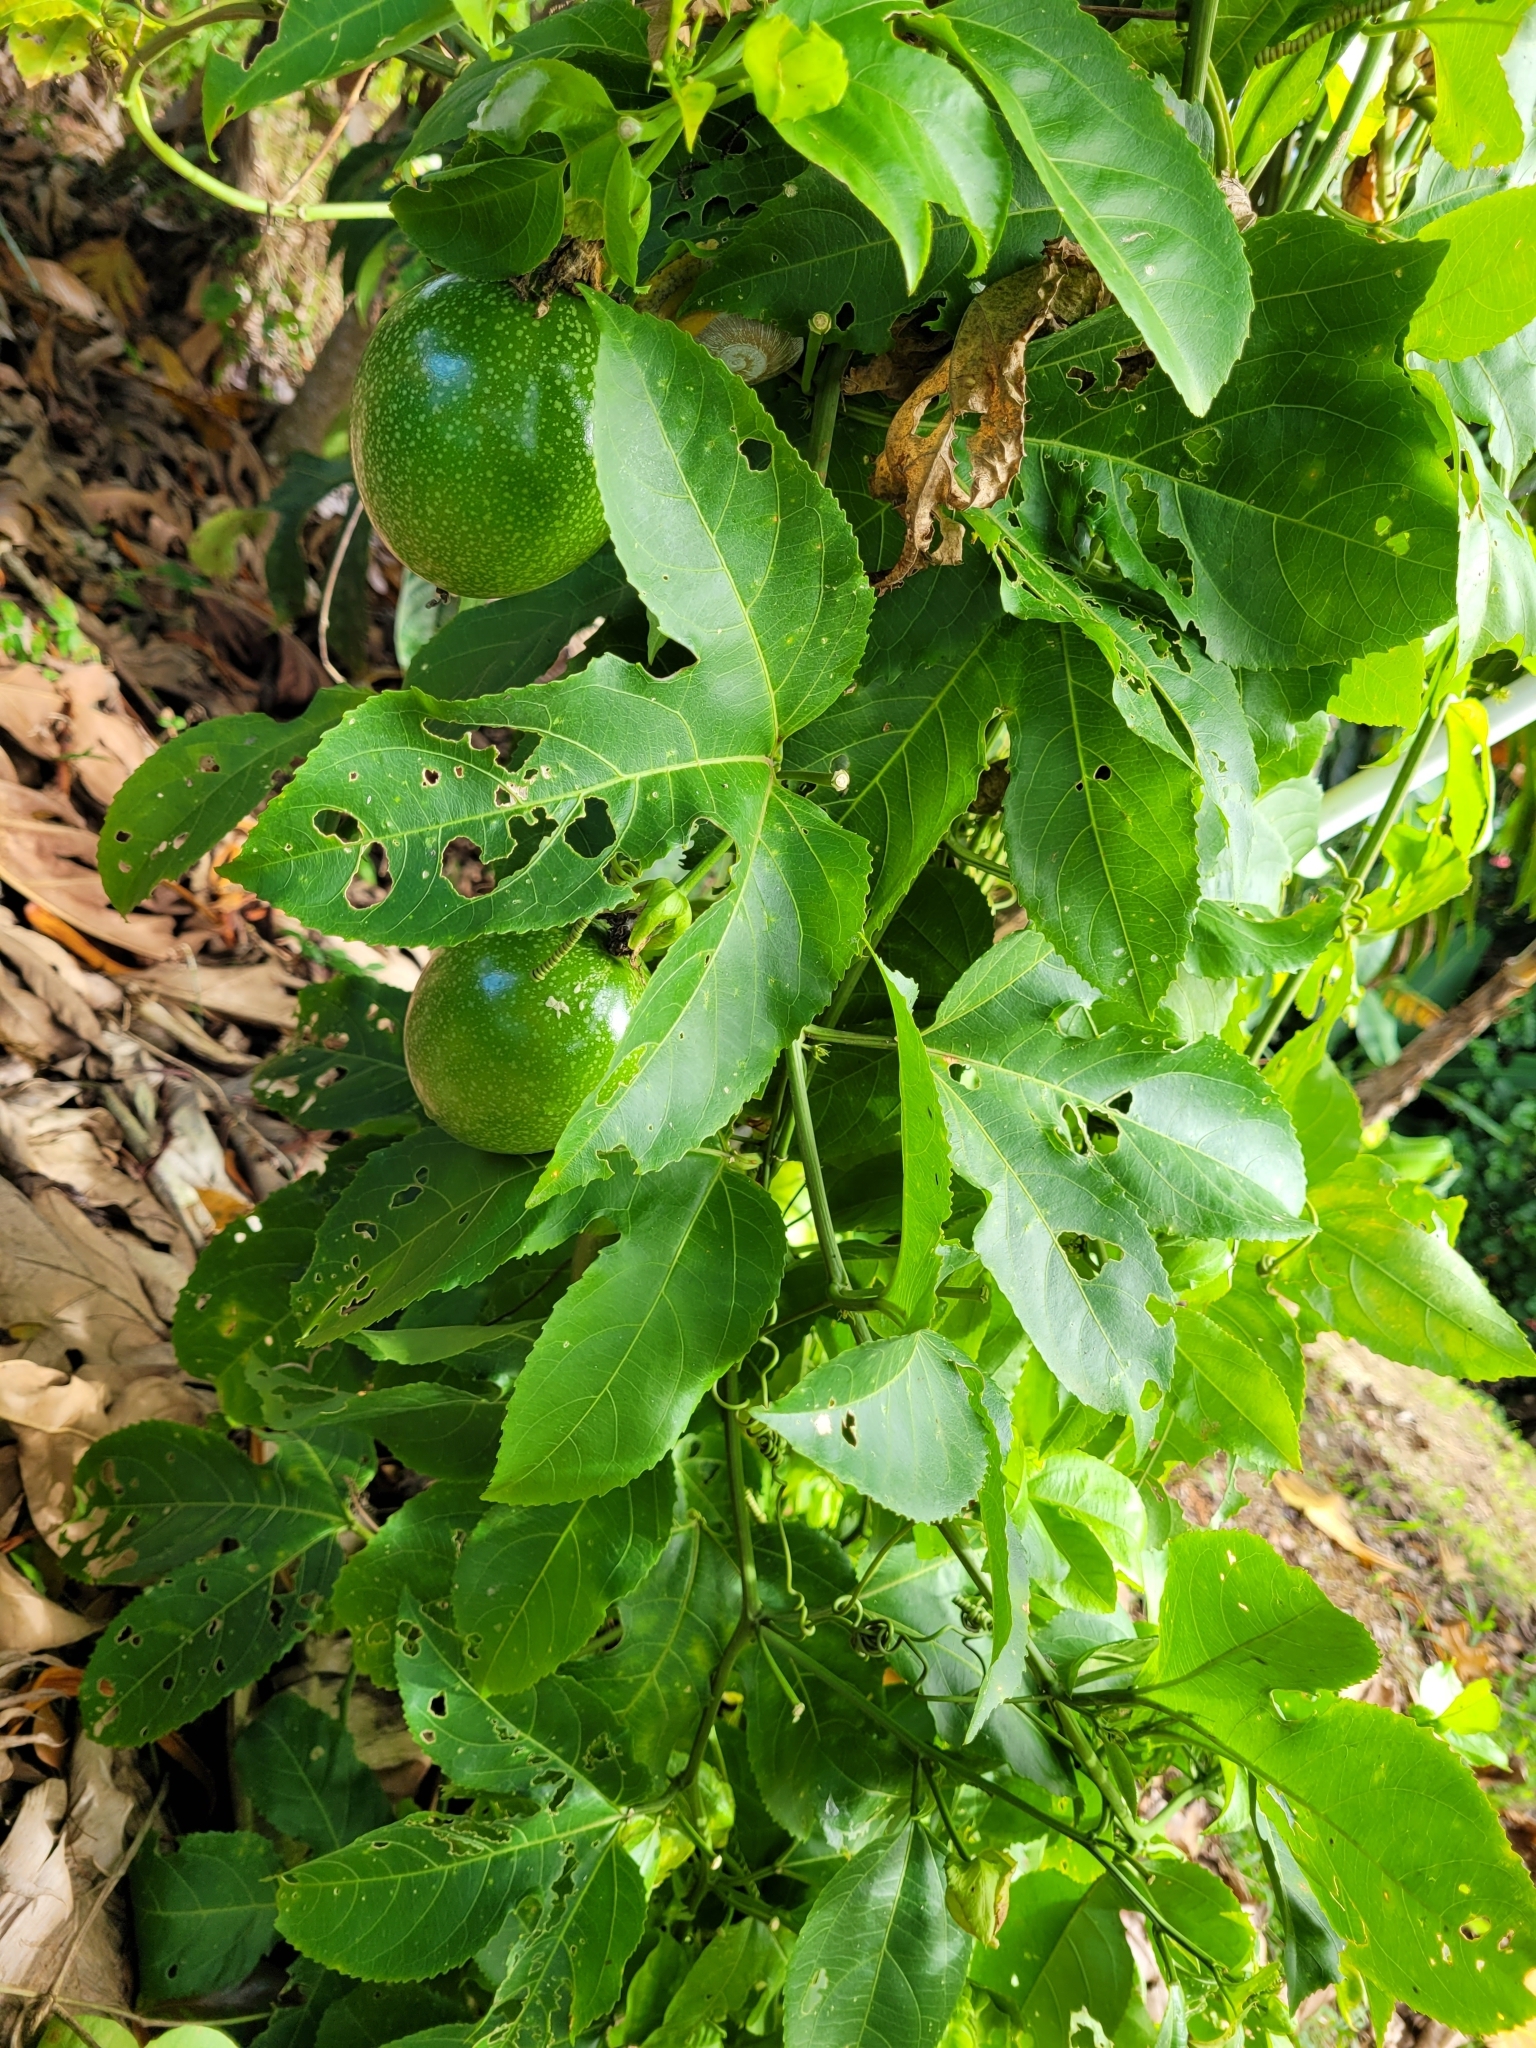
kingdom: Plantae
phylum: Tracheophyta
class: Magnoliopsida
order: Malpighiales
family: Passifloraceae
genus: Passiflora
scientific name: Passiflora edulis
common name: Purple granadilla
